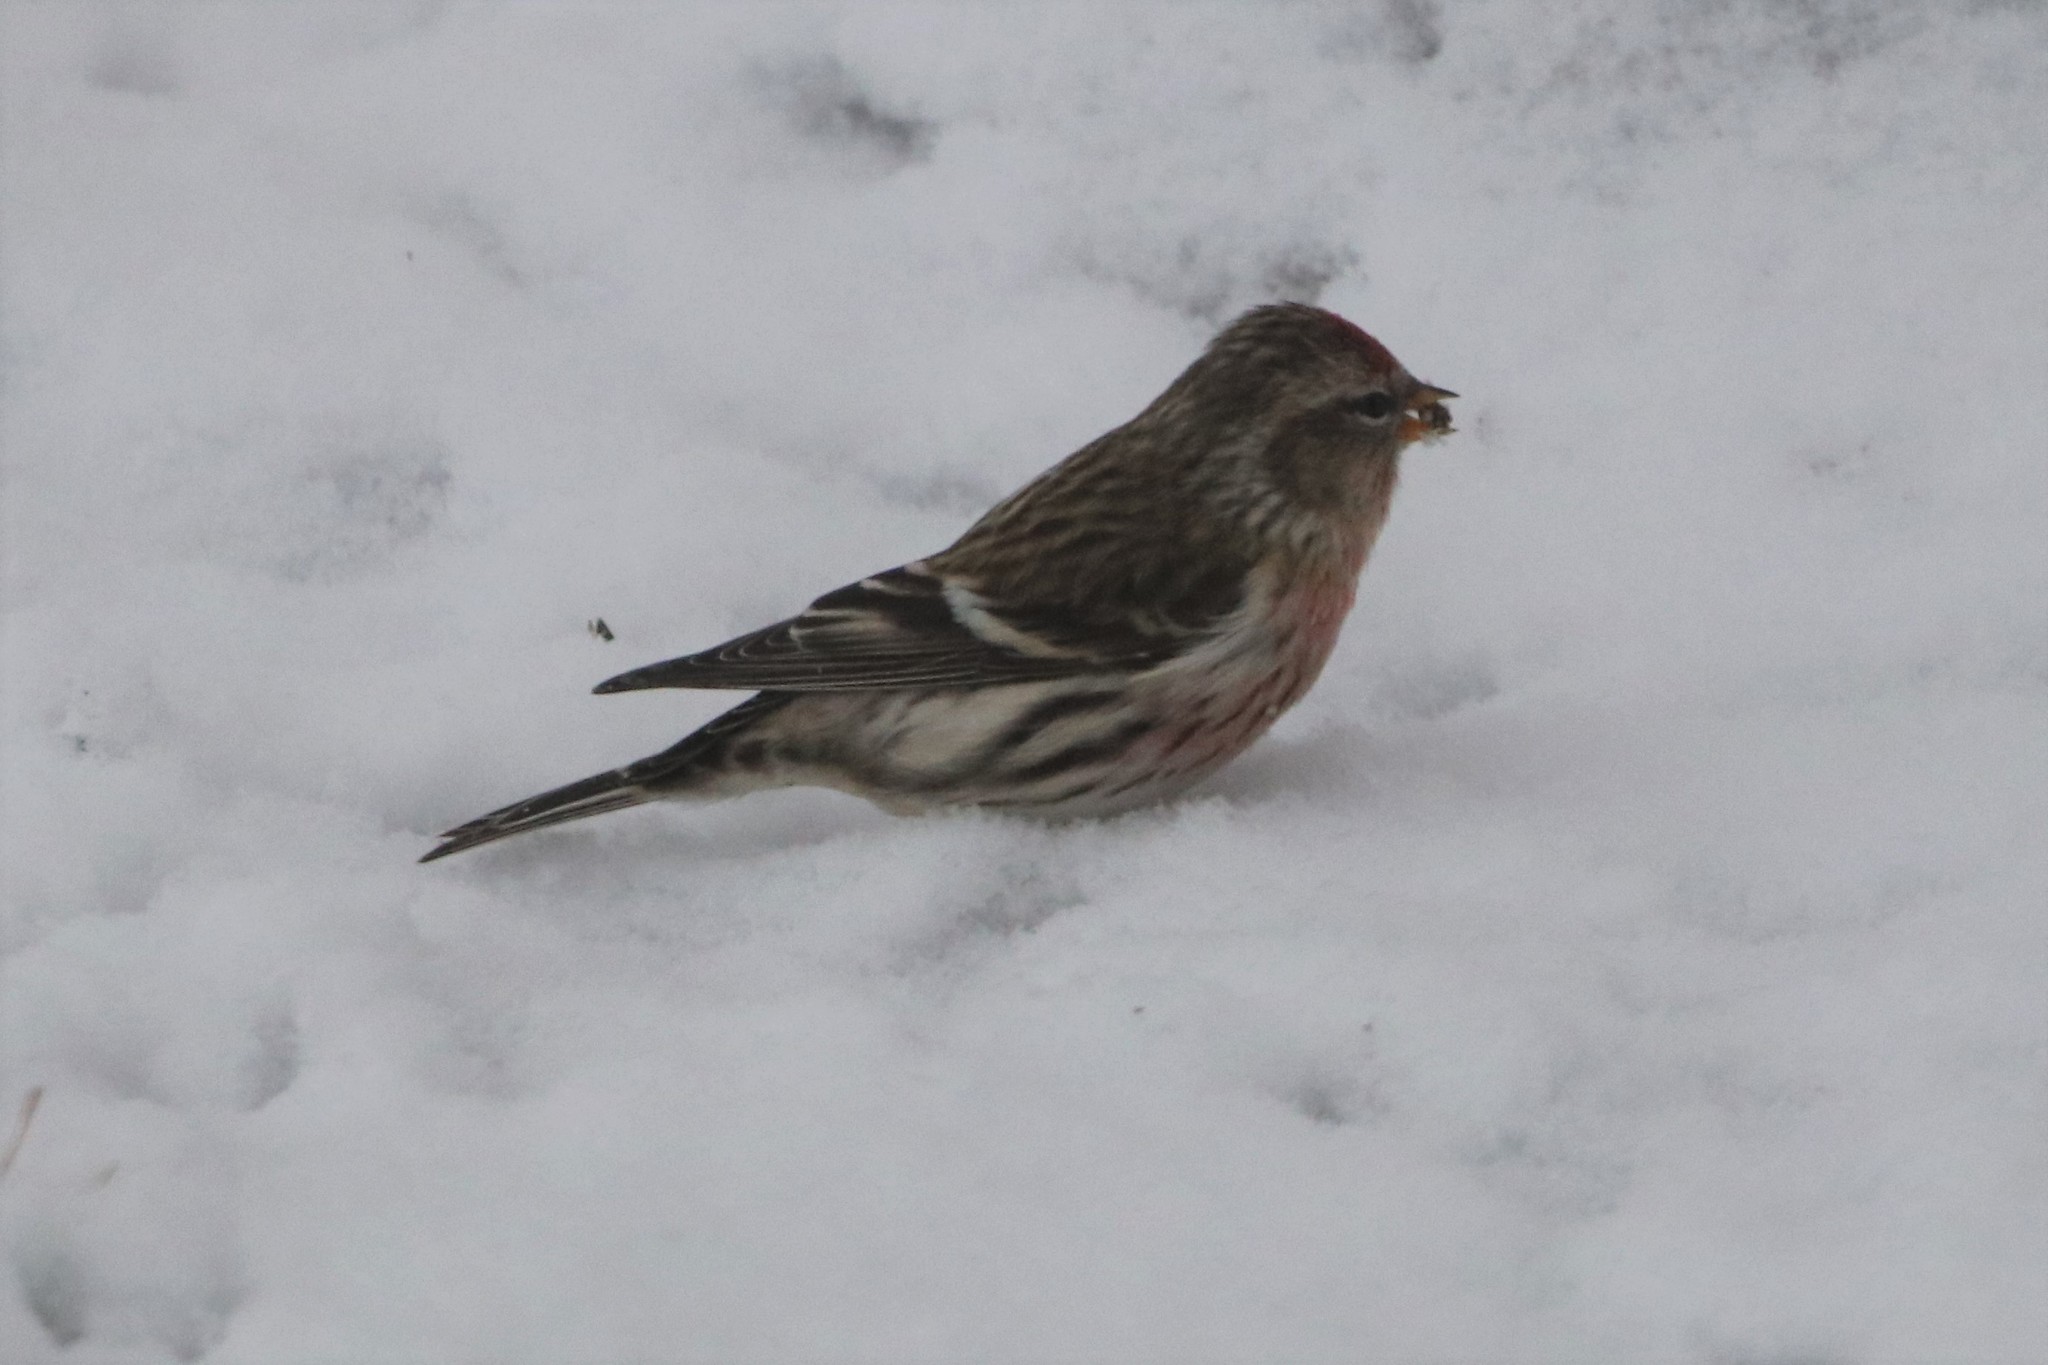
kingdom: Animalia
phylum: Chordata
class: Aves
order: Passeriformes
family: Fringillidae
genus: Acanthis
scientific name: Acanthis flammea
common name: Common redpoll
